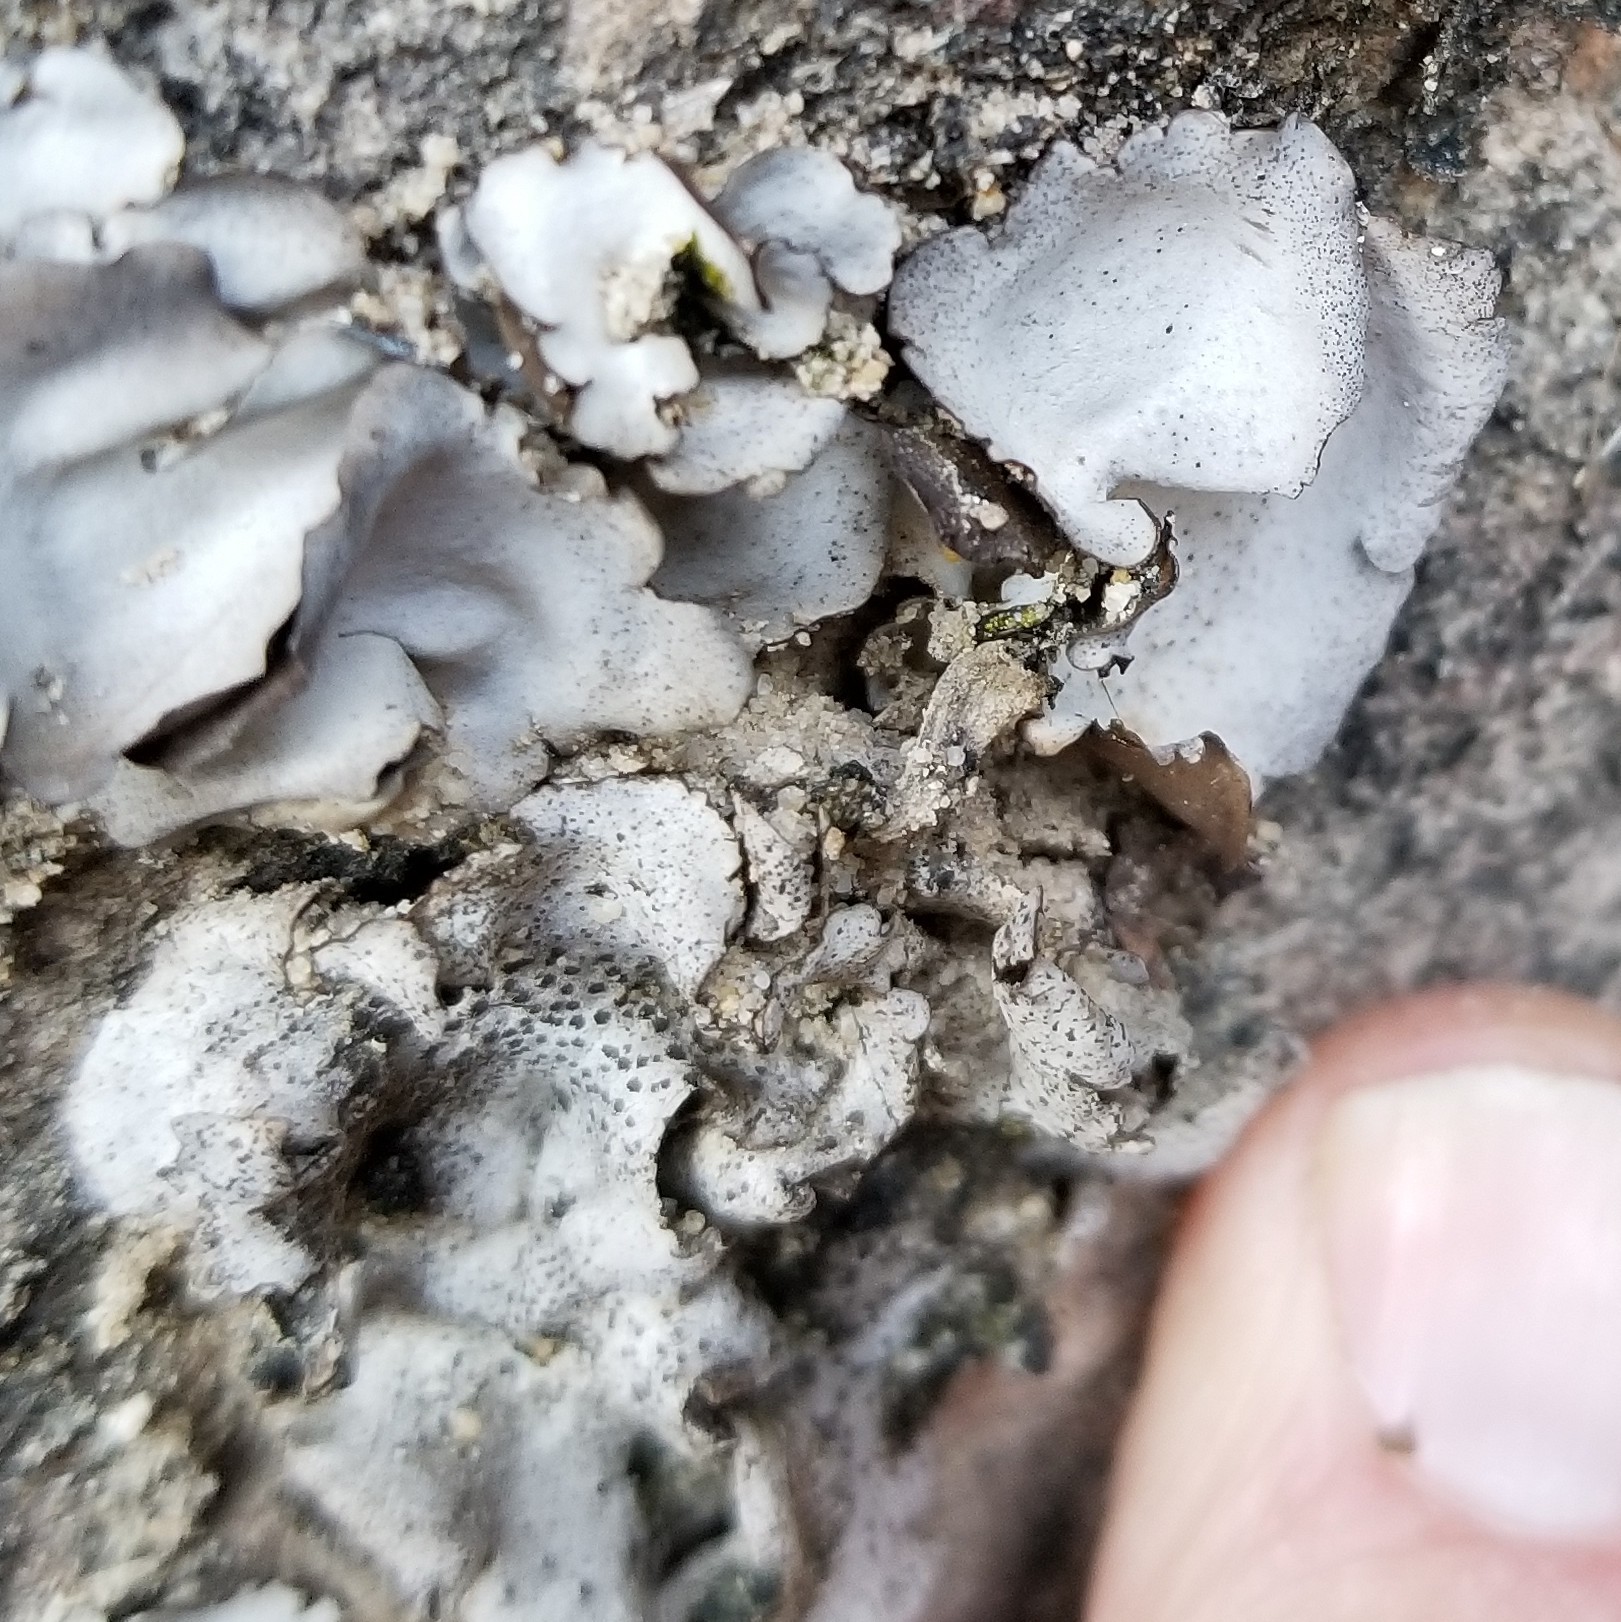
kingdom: Fungi
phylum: Ascomycota
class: Lecanoromycetes
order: Umbilicariales
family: Umbilicariaceae
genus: Umbilicaria
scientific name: Umbilicaria americana
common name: Frosted rock tripe
